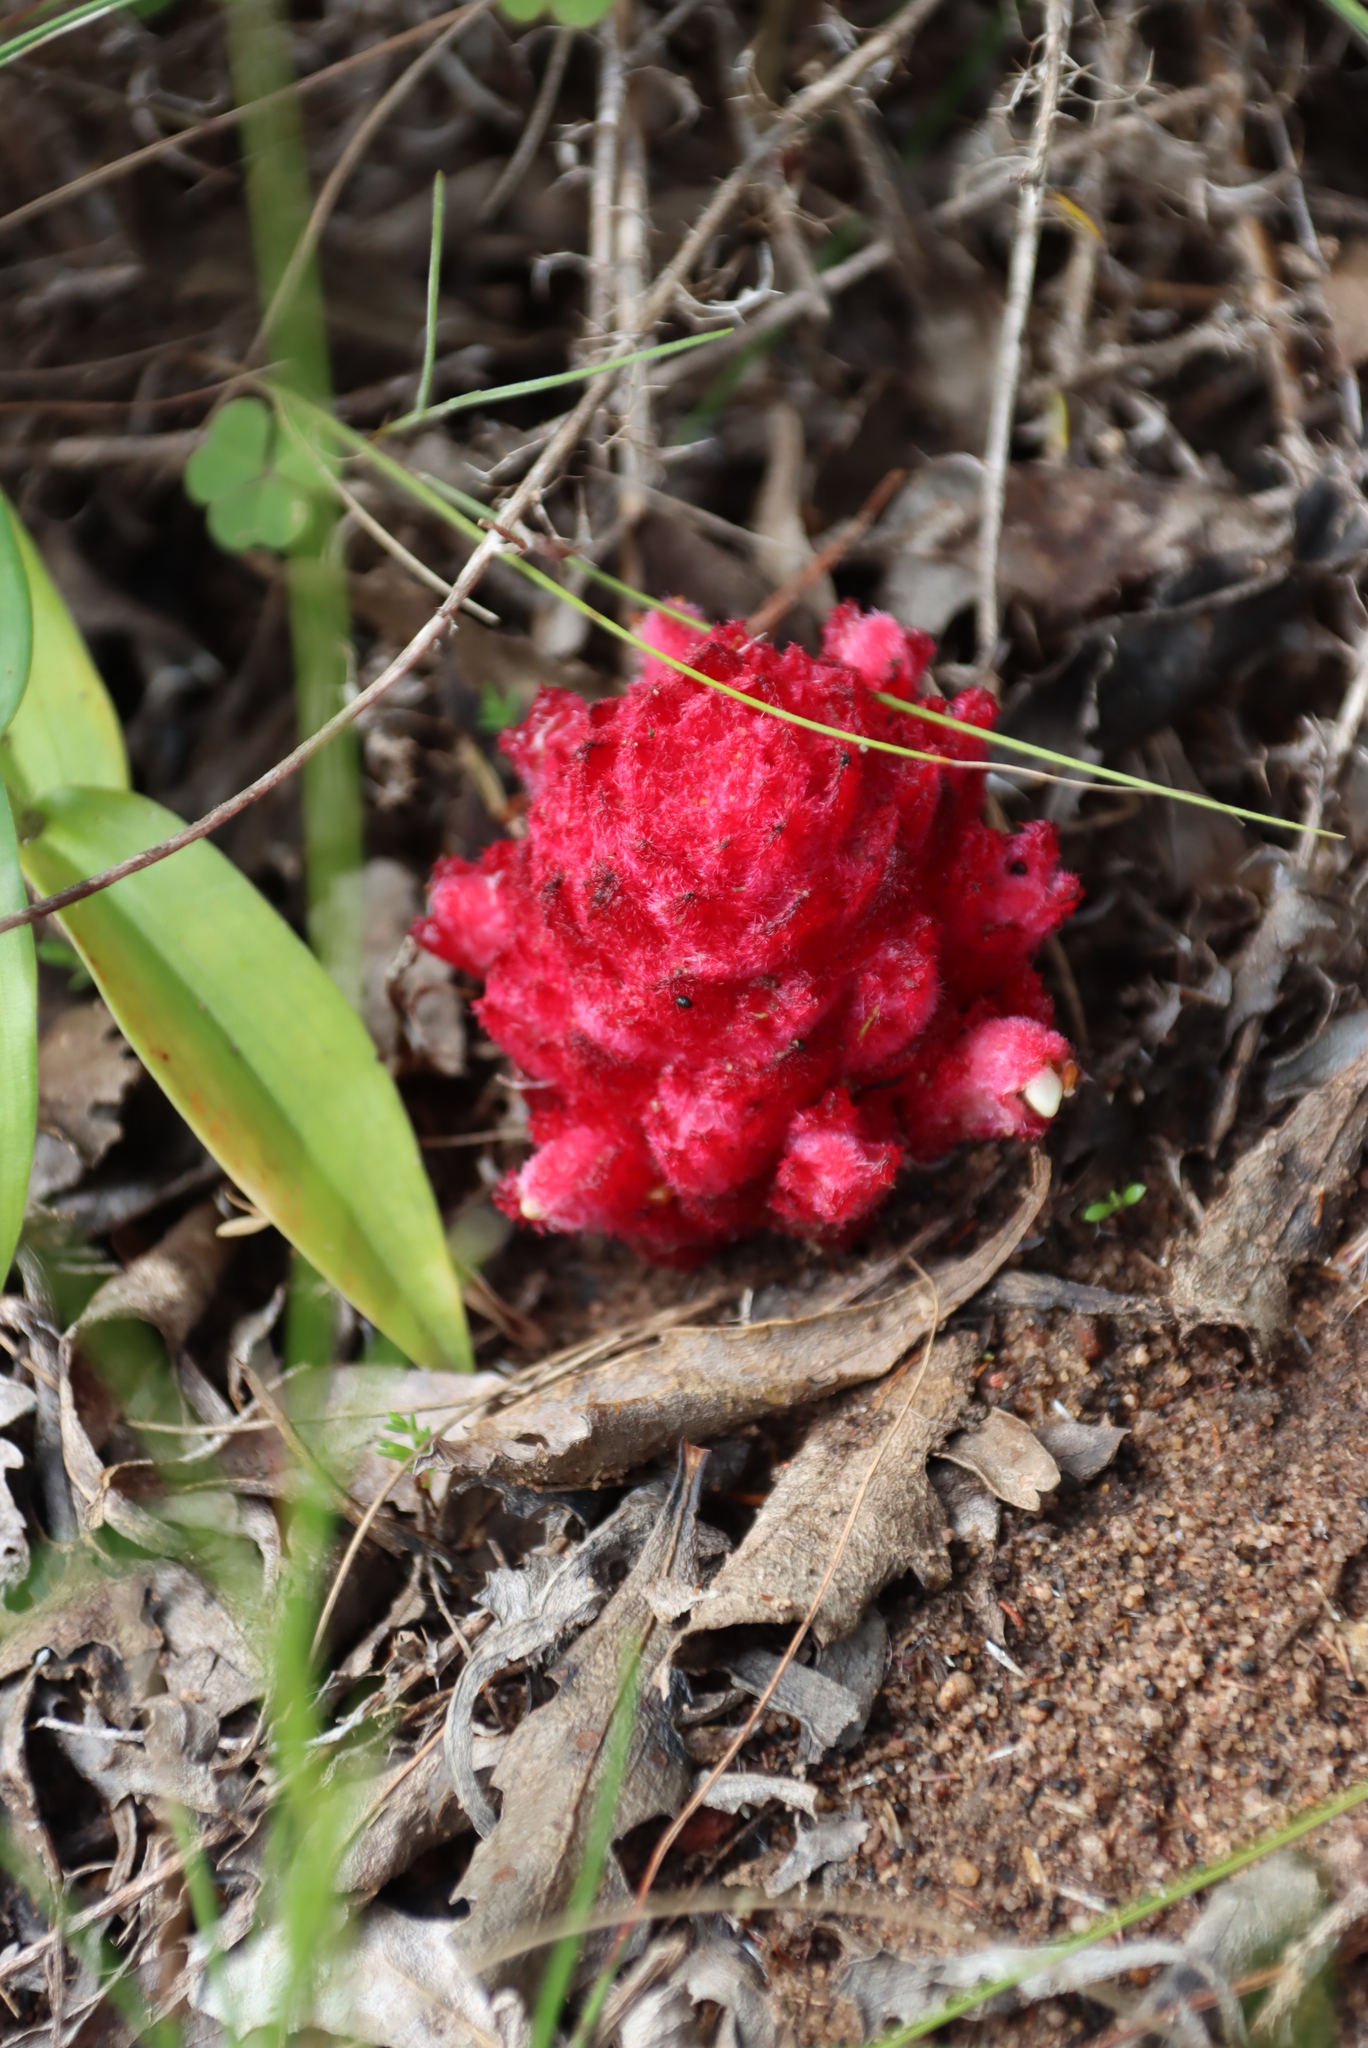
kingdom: Plantae
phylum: Tracheophyta
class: Magnoliopsida
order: Lamiales
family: Orobanchaceae
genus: Hyobanche
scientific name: Hyobanche sanguinea
